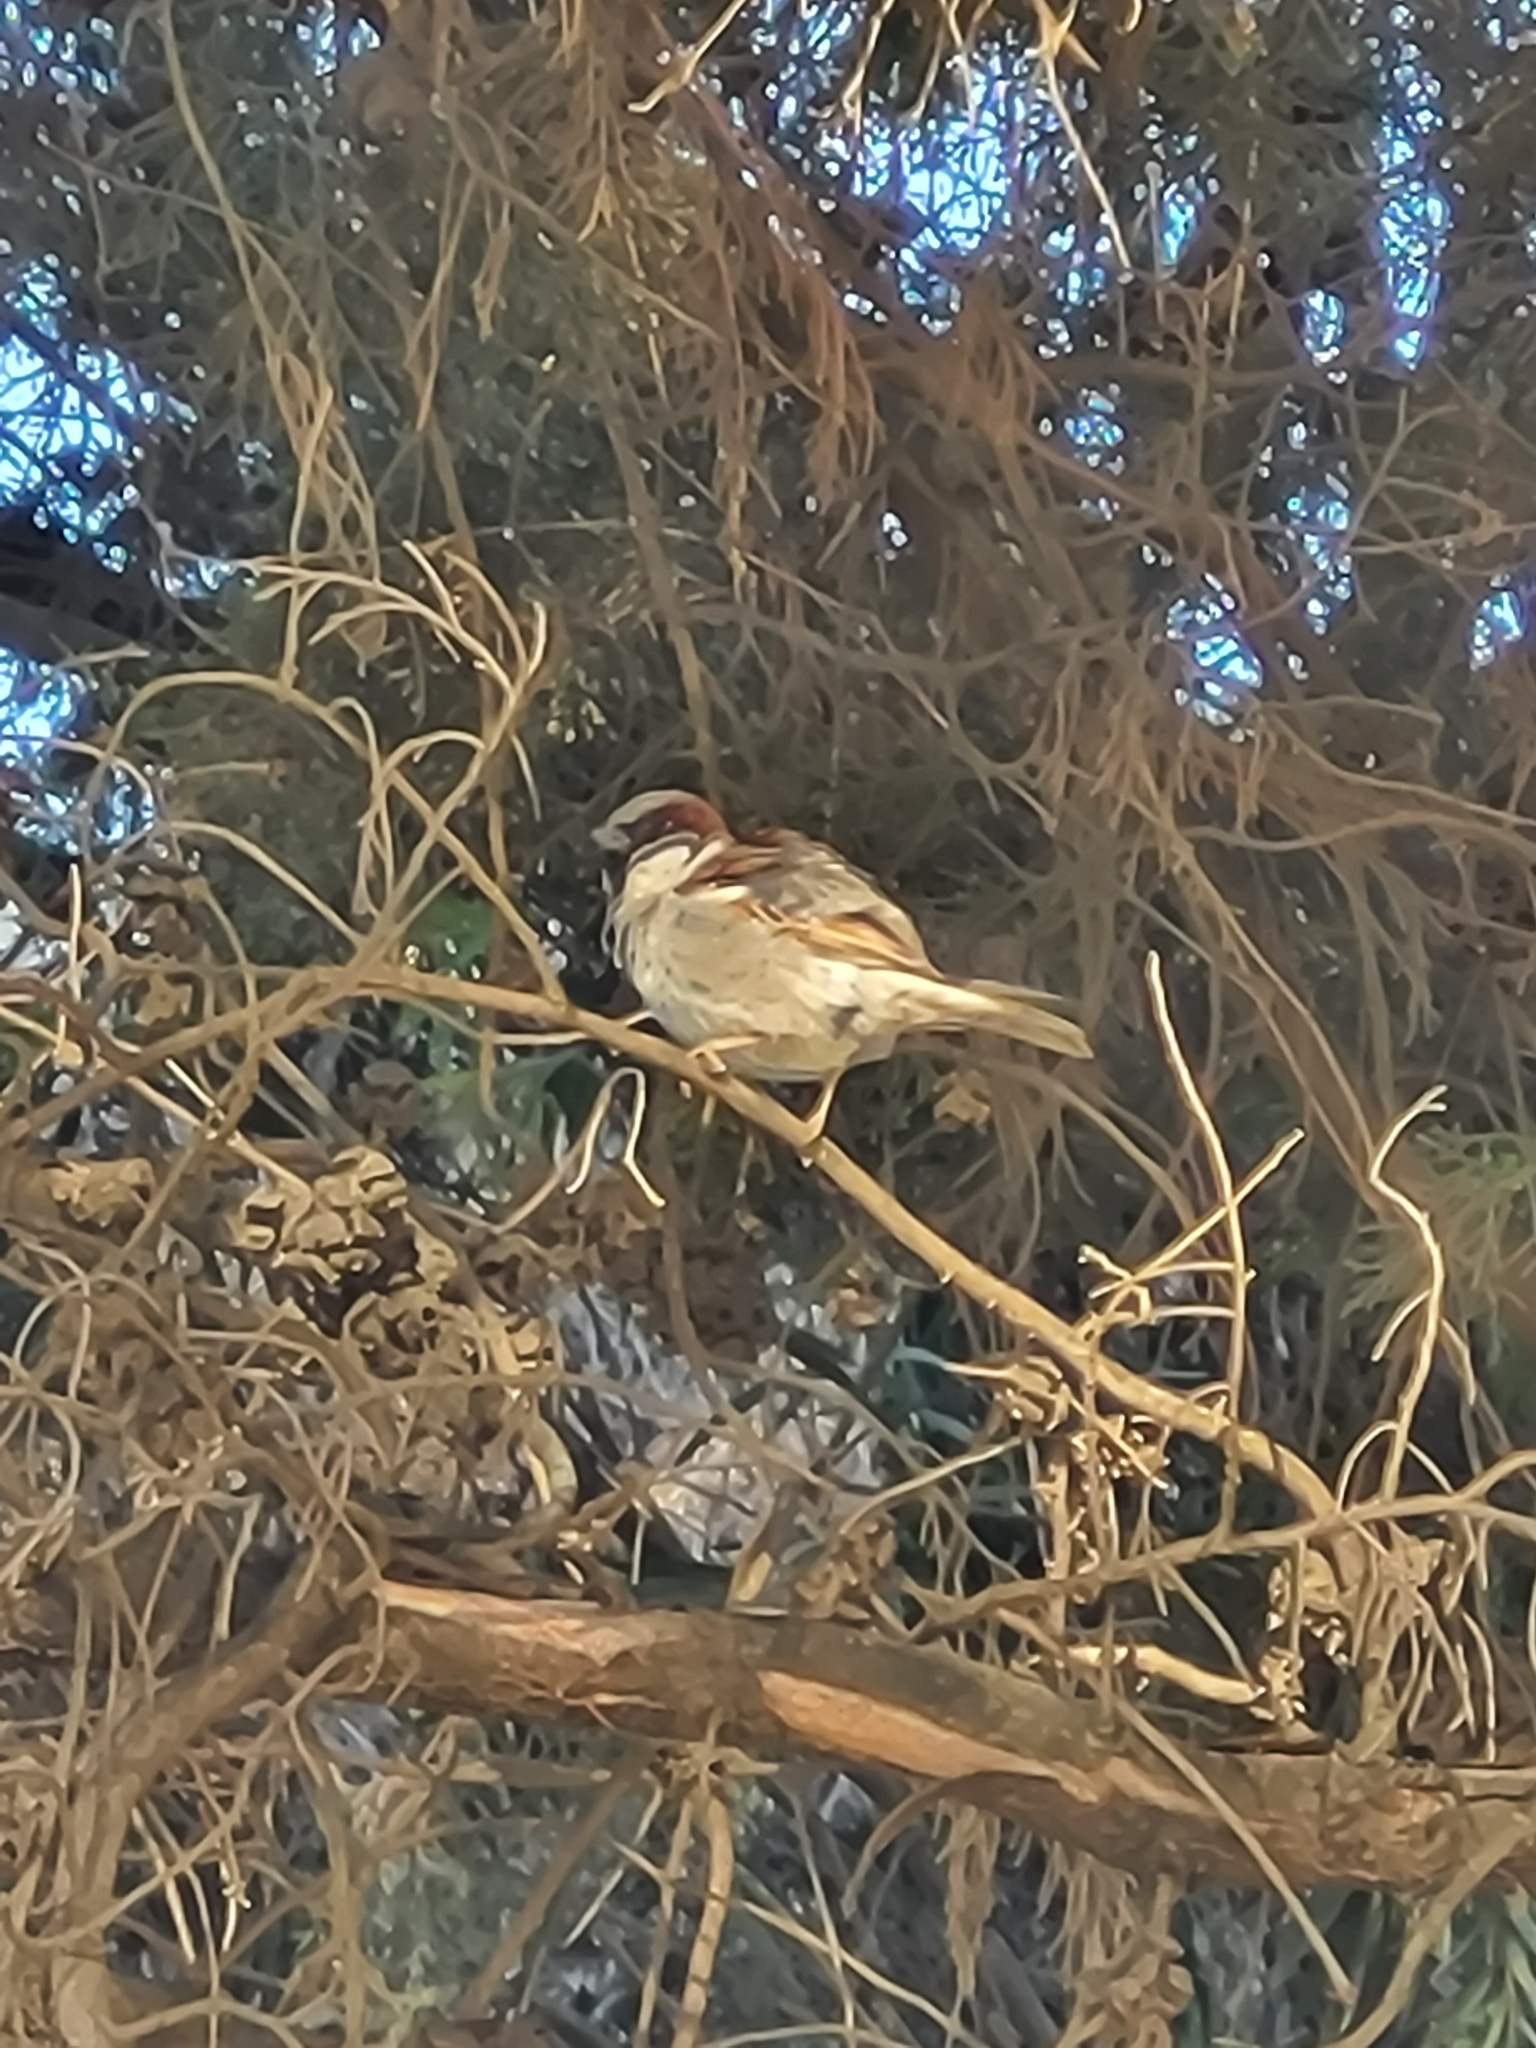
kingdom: Animalia
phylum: Chordata
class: Aves
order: Passeriformes
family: Passeridae
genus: Passer
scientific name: Passer domesticus
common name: House sparrow
